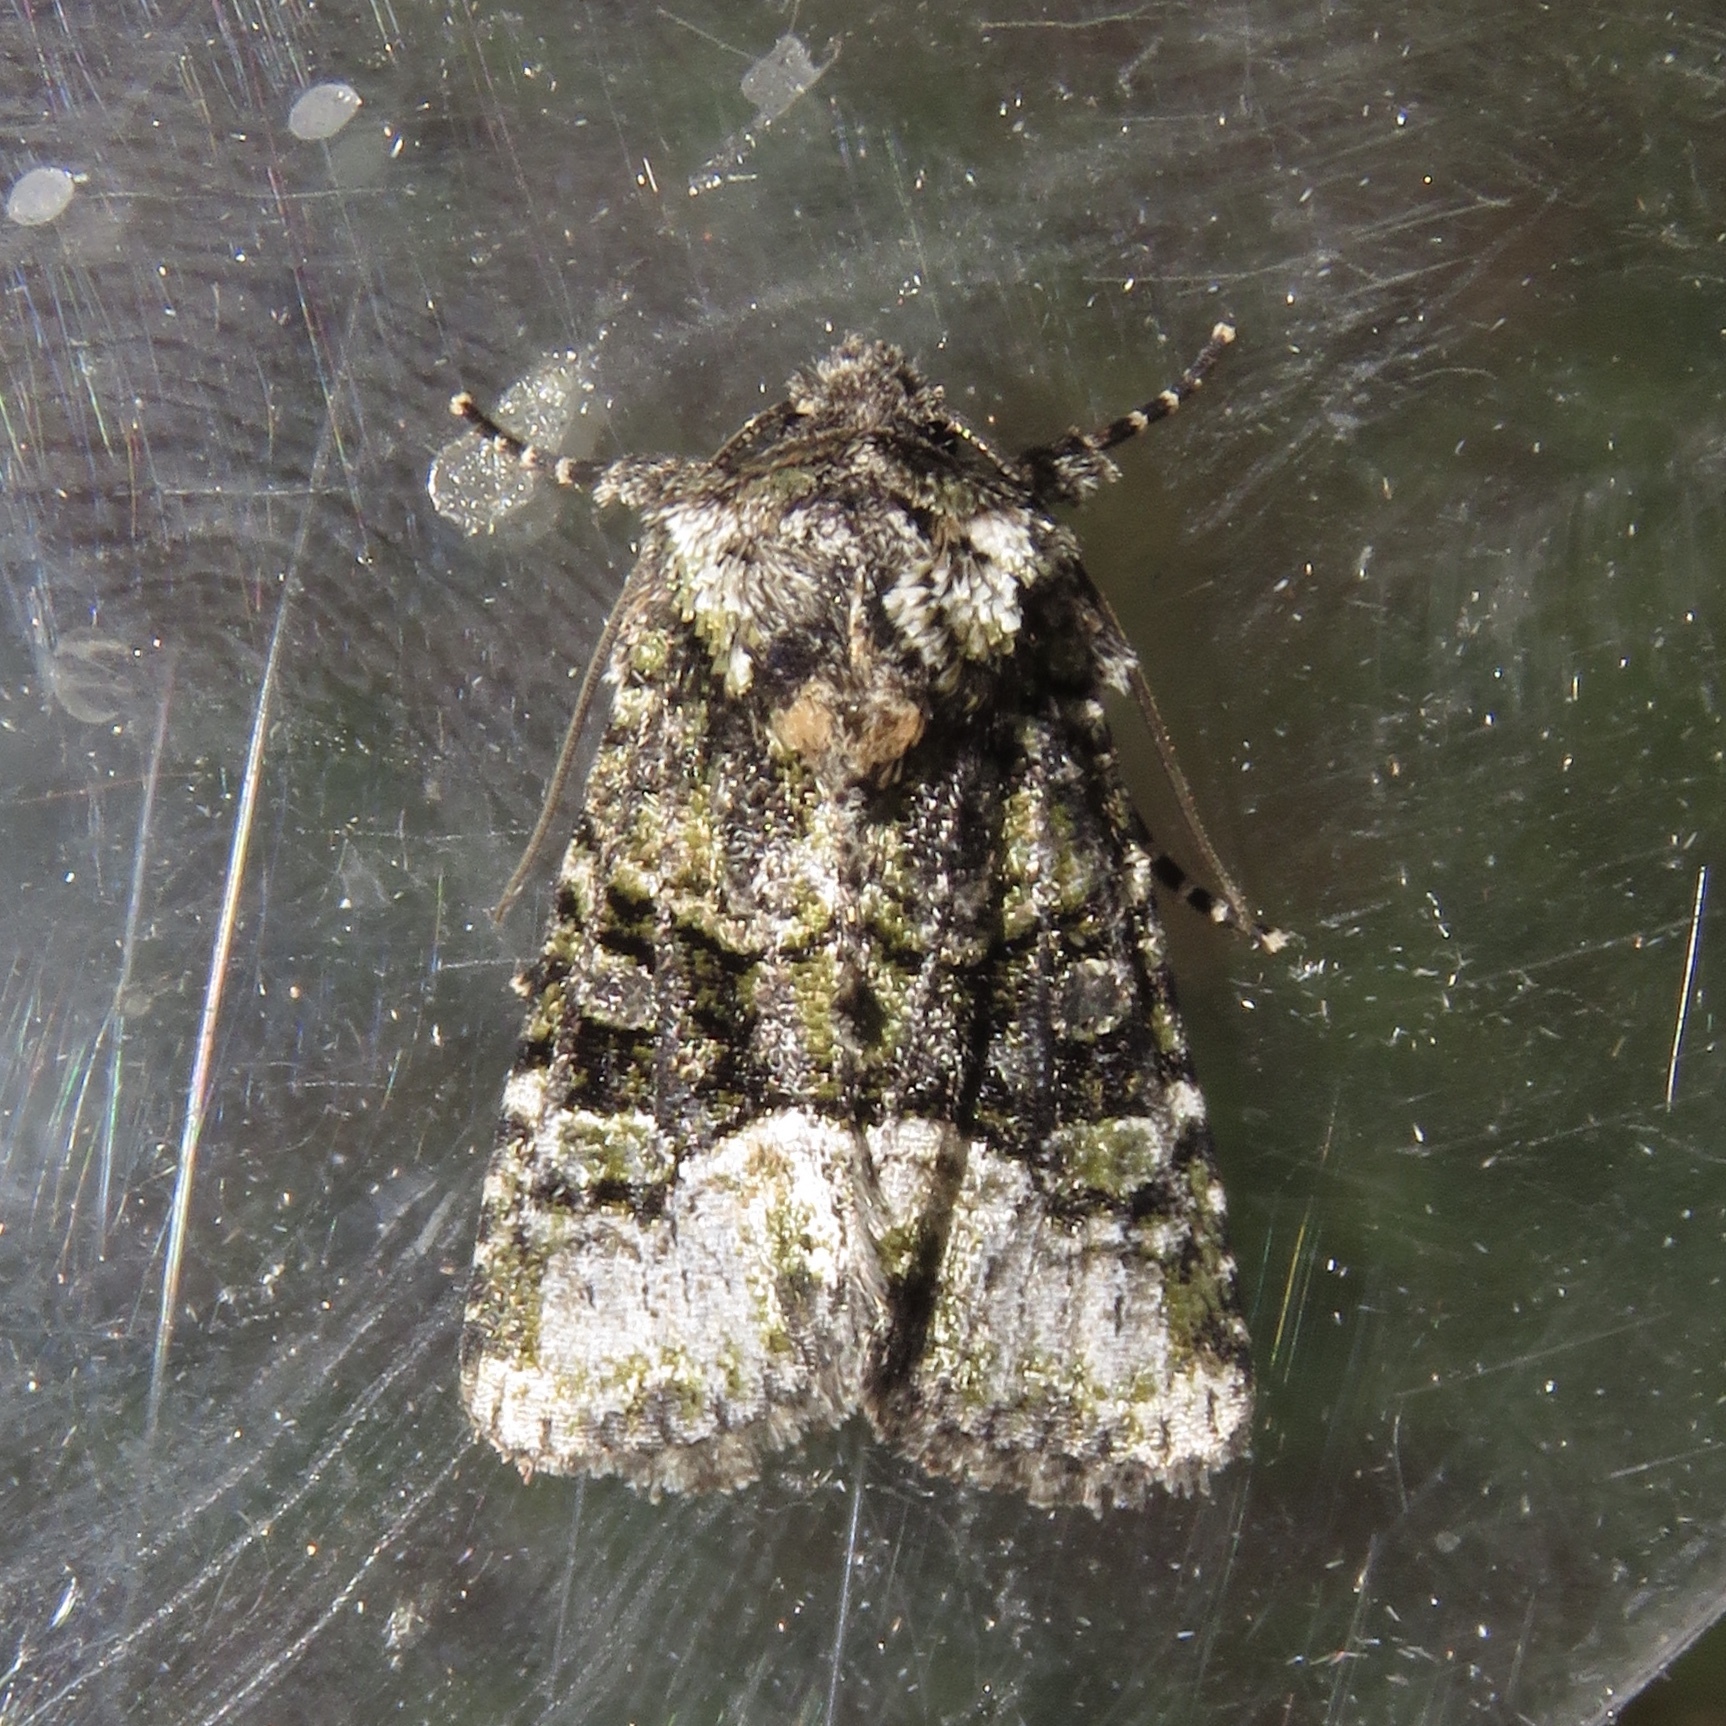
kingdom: Animalia
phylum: Arthropoda
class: Insecta
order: Lepidoptera
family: Noctuidae
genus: Lacinipolia
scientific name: Lacinipolia olivacea
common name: Olive arches moth
